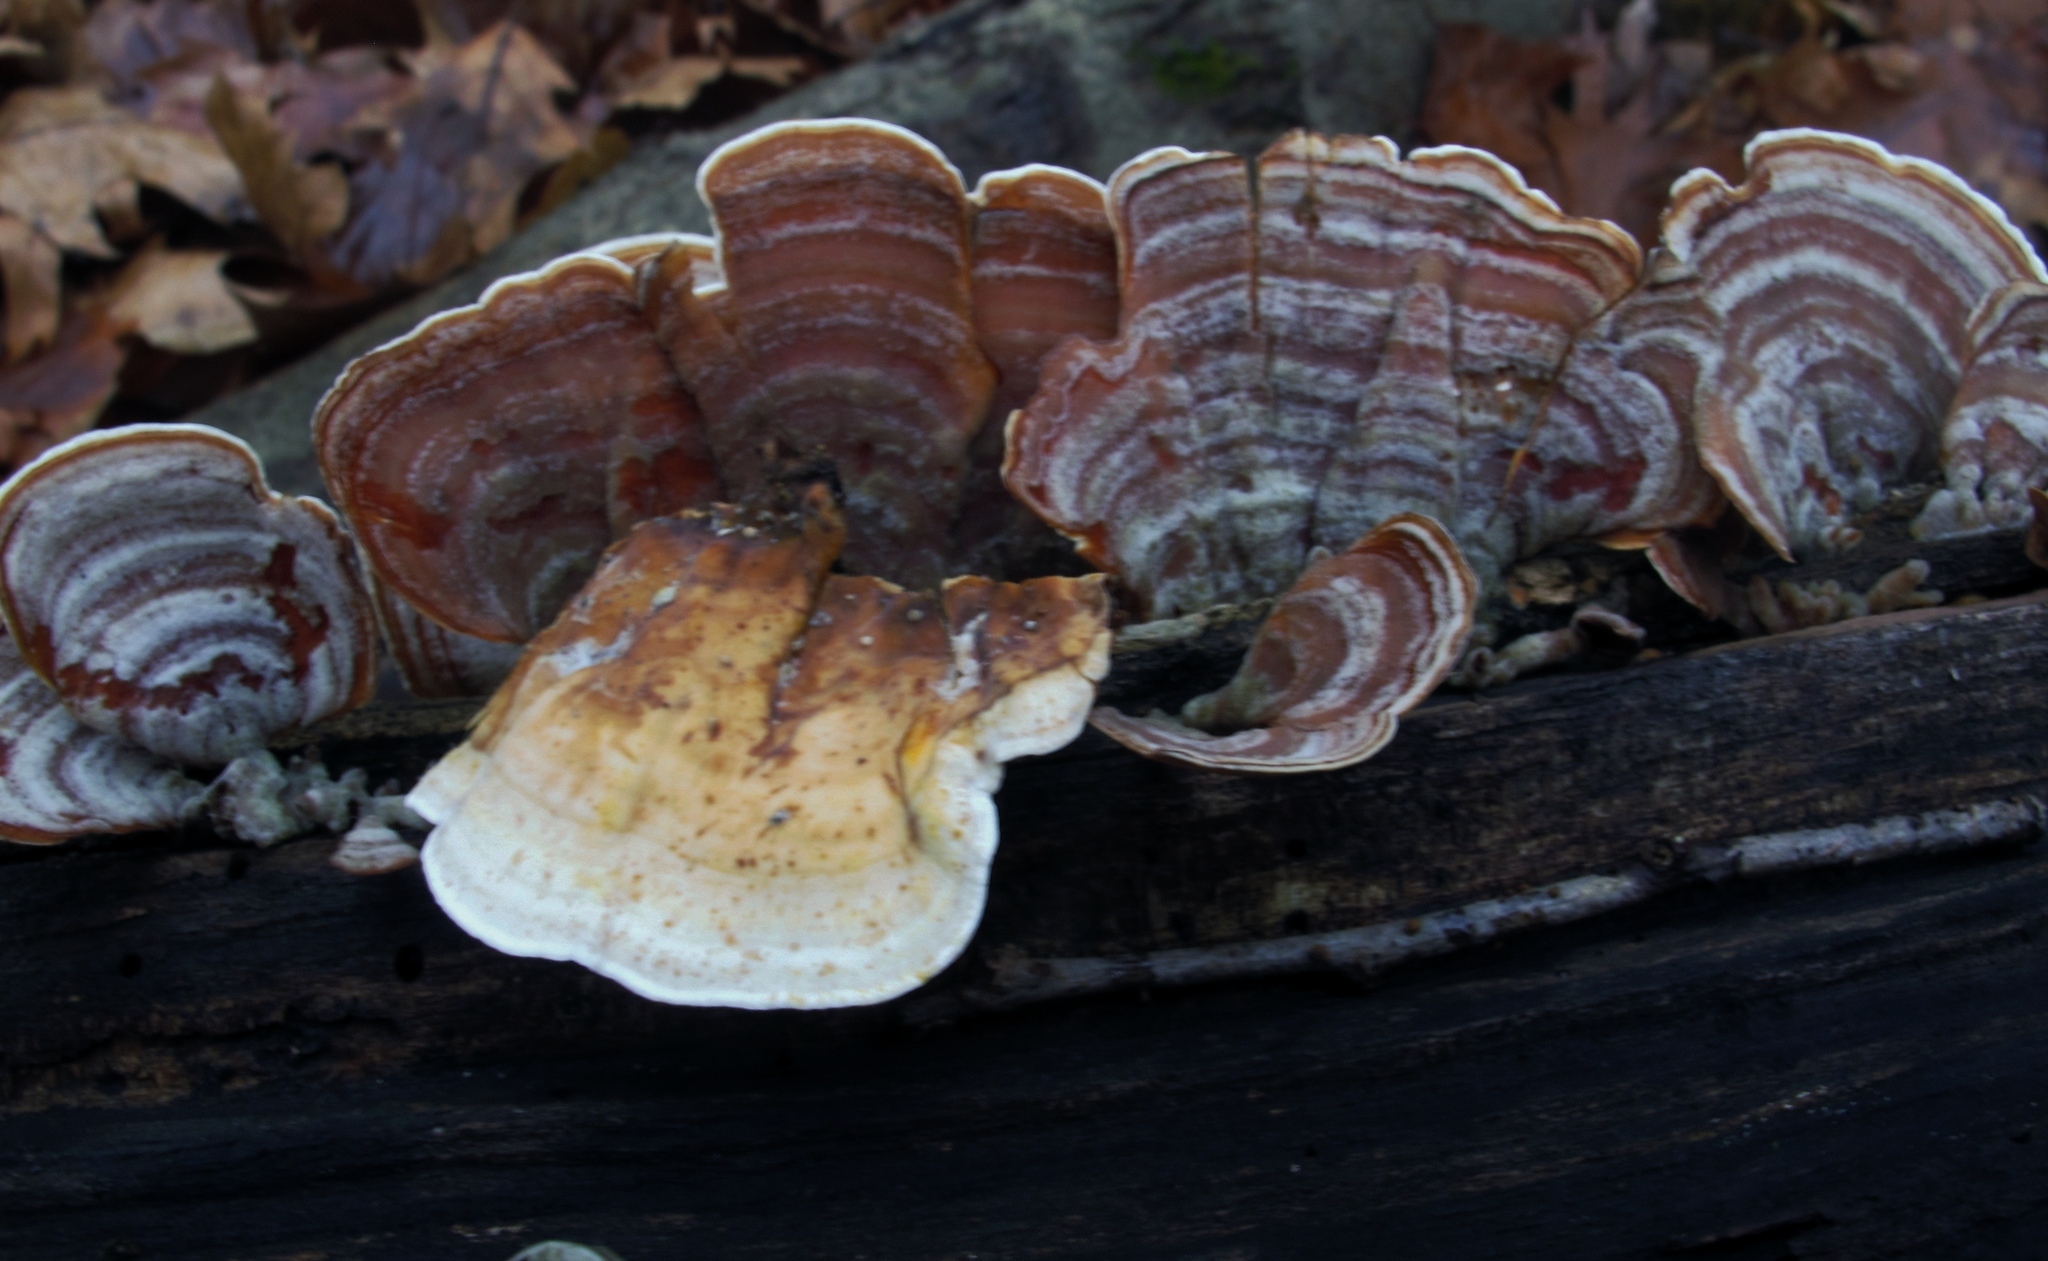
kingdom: Fungi
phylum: Basidiomycota
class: Agaricomycetes
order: Russulales
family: Stereaceae
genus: Stereum
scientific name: Stereum ostrea
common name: False turkeytail
